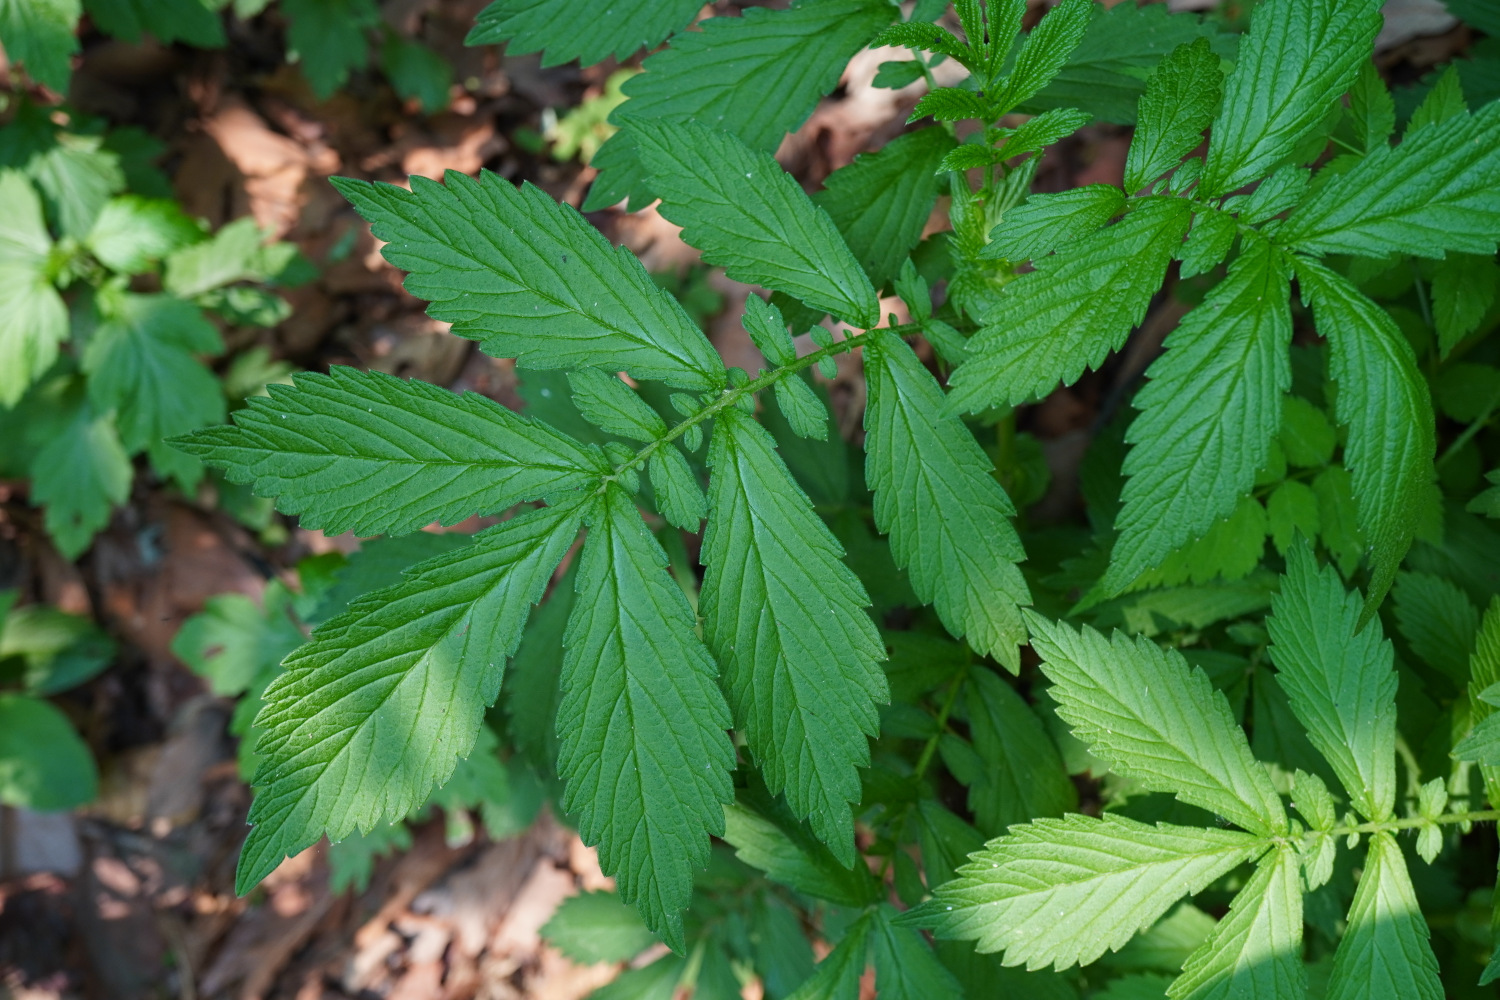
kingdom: Plantae
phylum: Tracheophyta
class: Magnoliopsida
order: Rosales
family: Rosaceae
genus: Agrimonia
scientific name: Agrimonia pilosa
